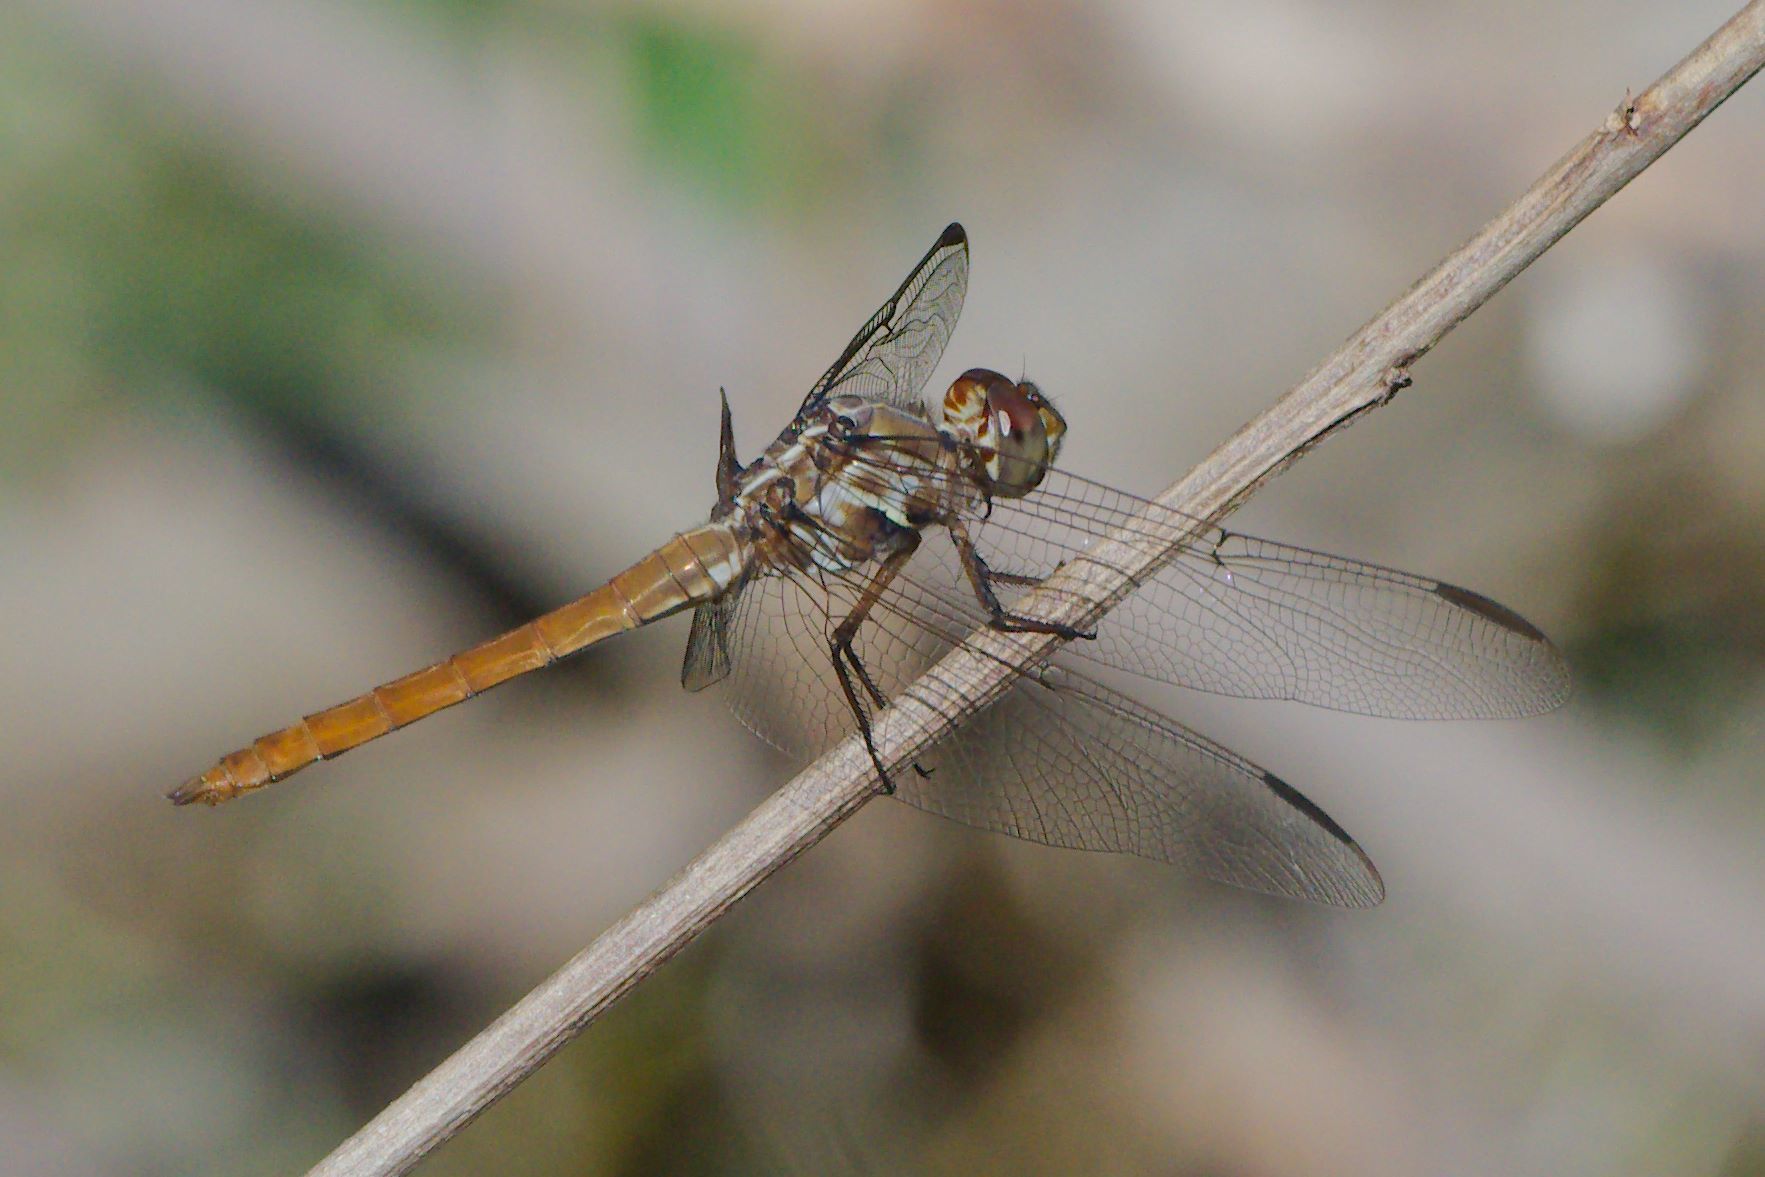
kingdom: Animalia
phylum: Arthropoda
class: Insecta
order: Odonata
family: Libellulidae
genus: Orthemis
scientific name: Orthemis ferruginea
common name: Roseate skimmer
